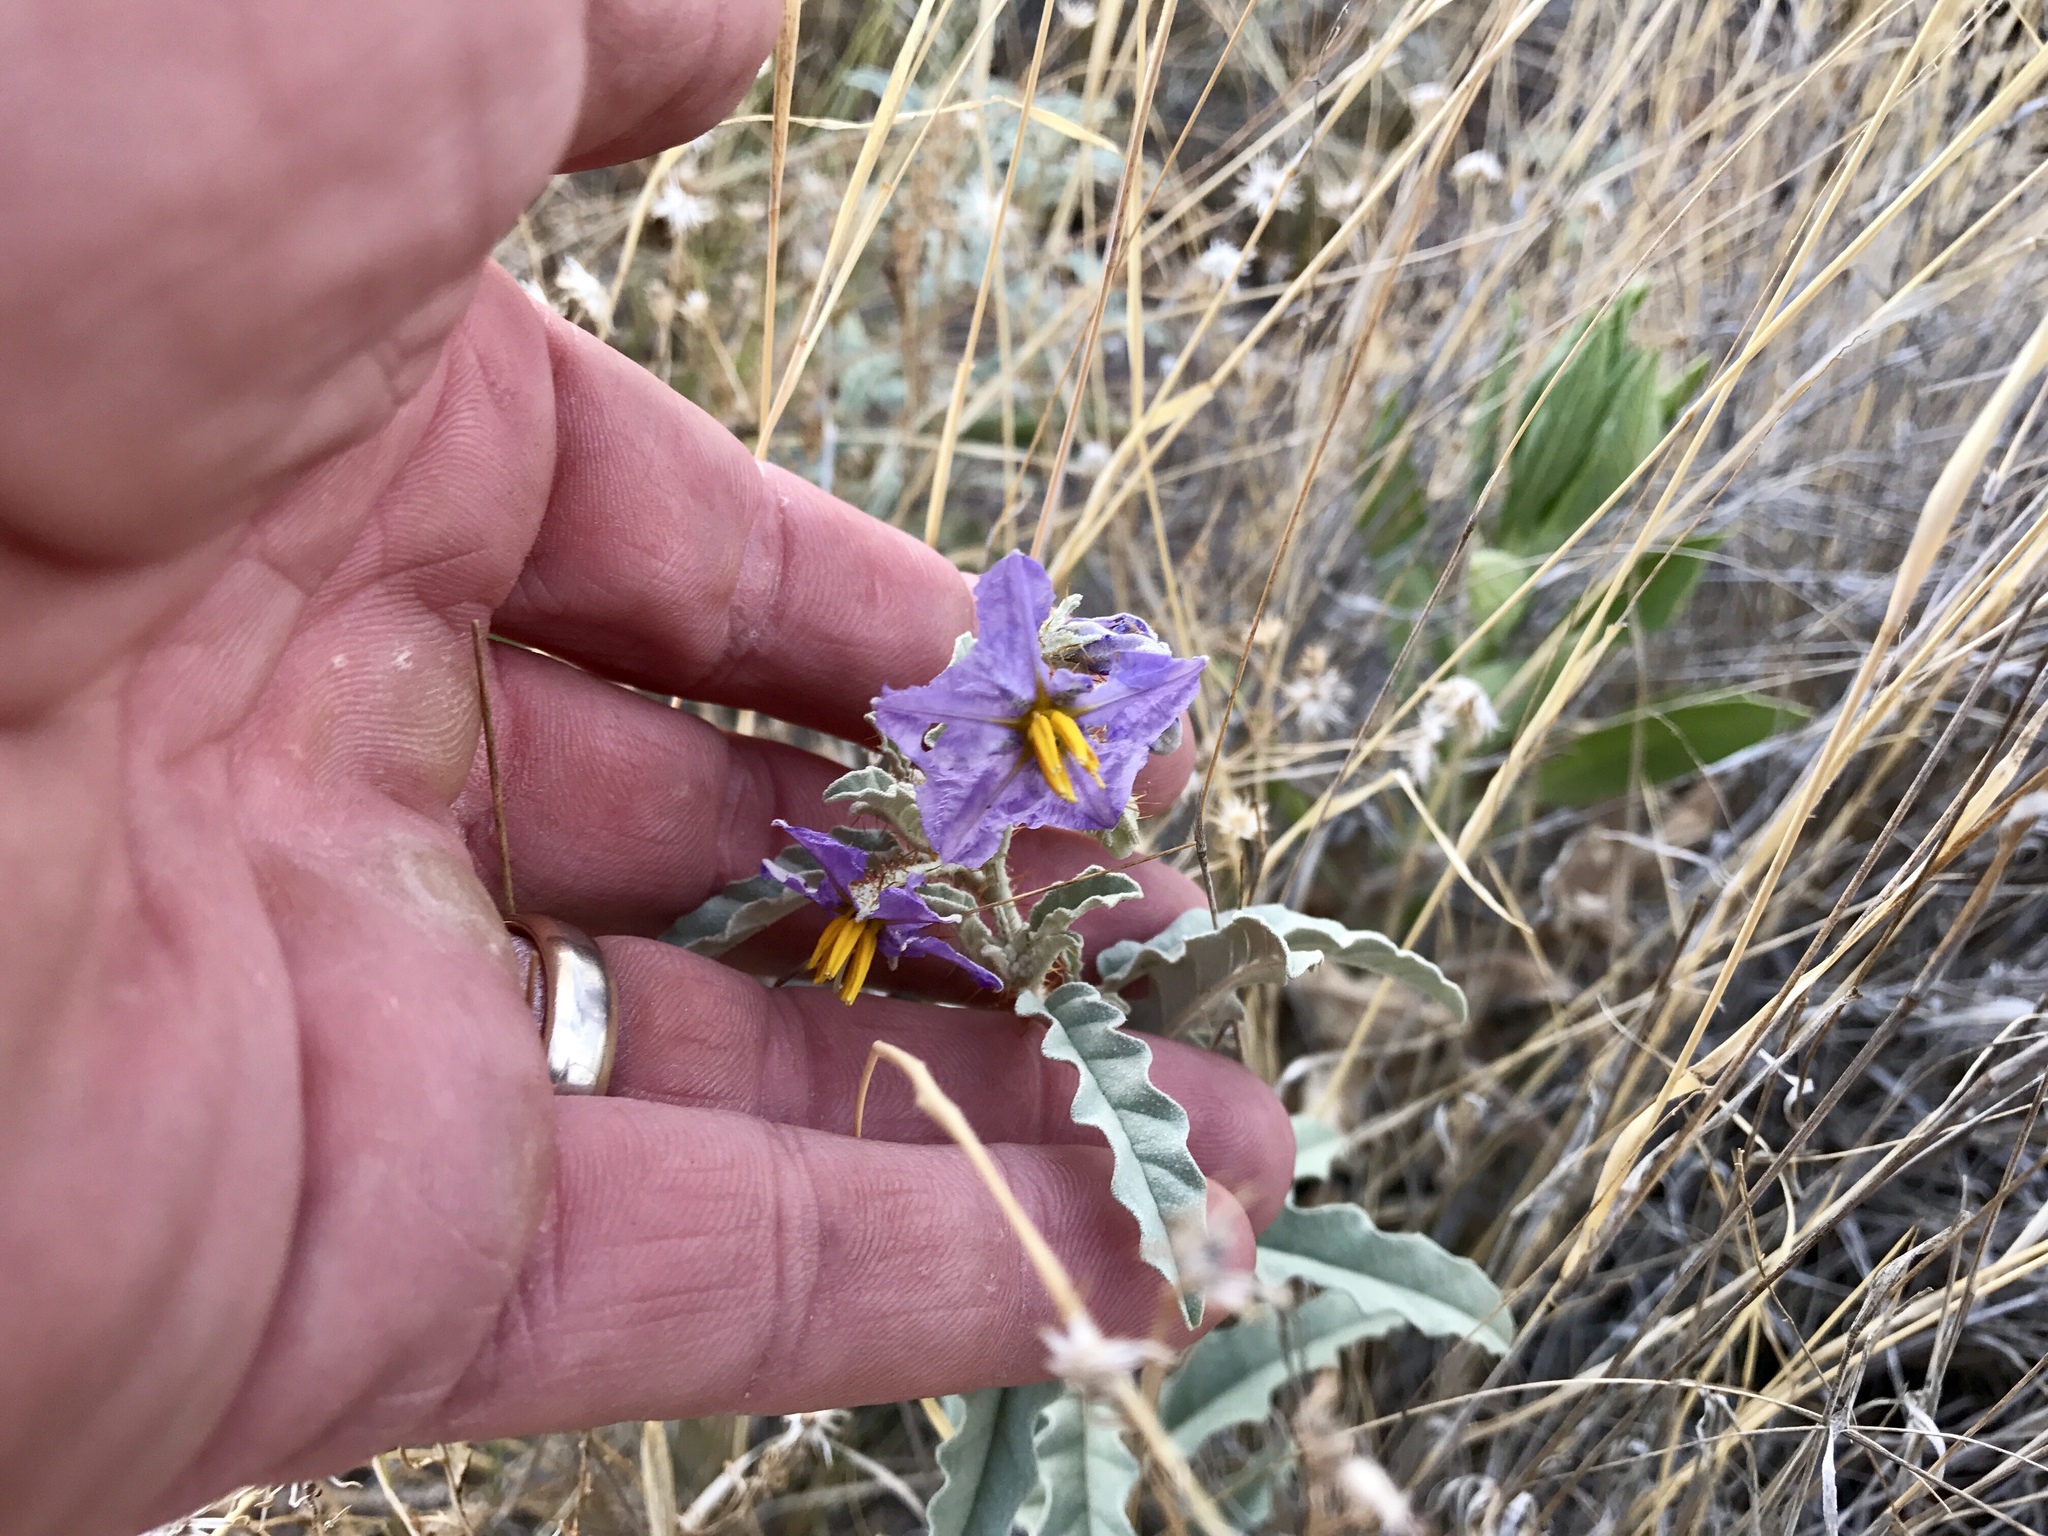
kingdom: Plantae
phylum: Tracheophyta
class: Magnoliopsida
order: Solanales
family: Solanaceae
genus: Solanum
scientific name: Solanum elaeagnifolium
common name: Silverleaf nightshade
